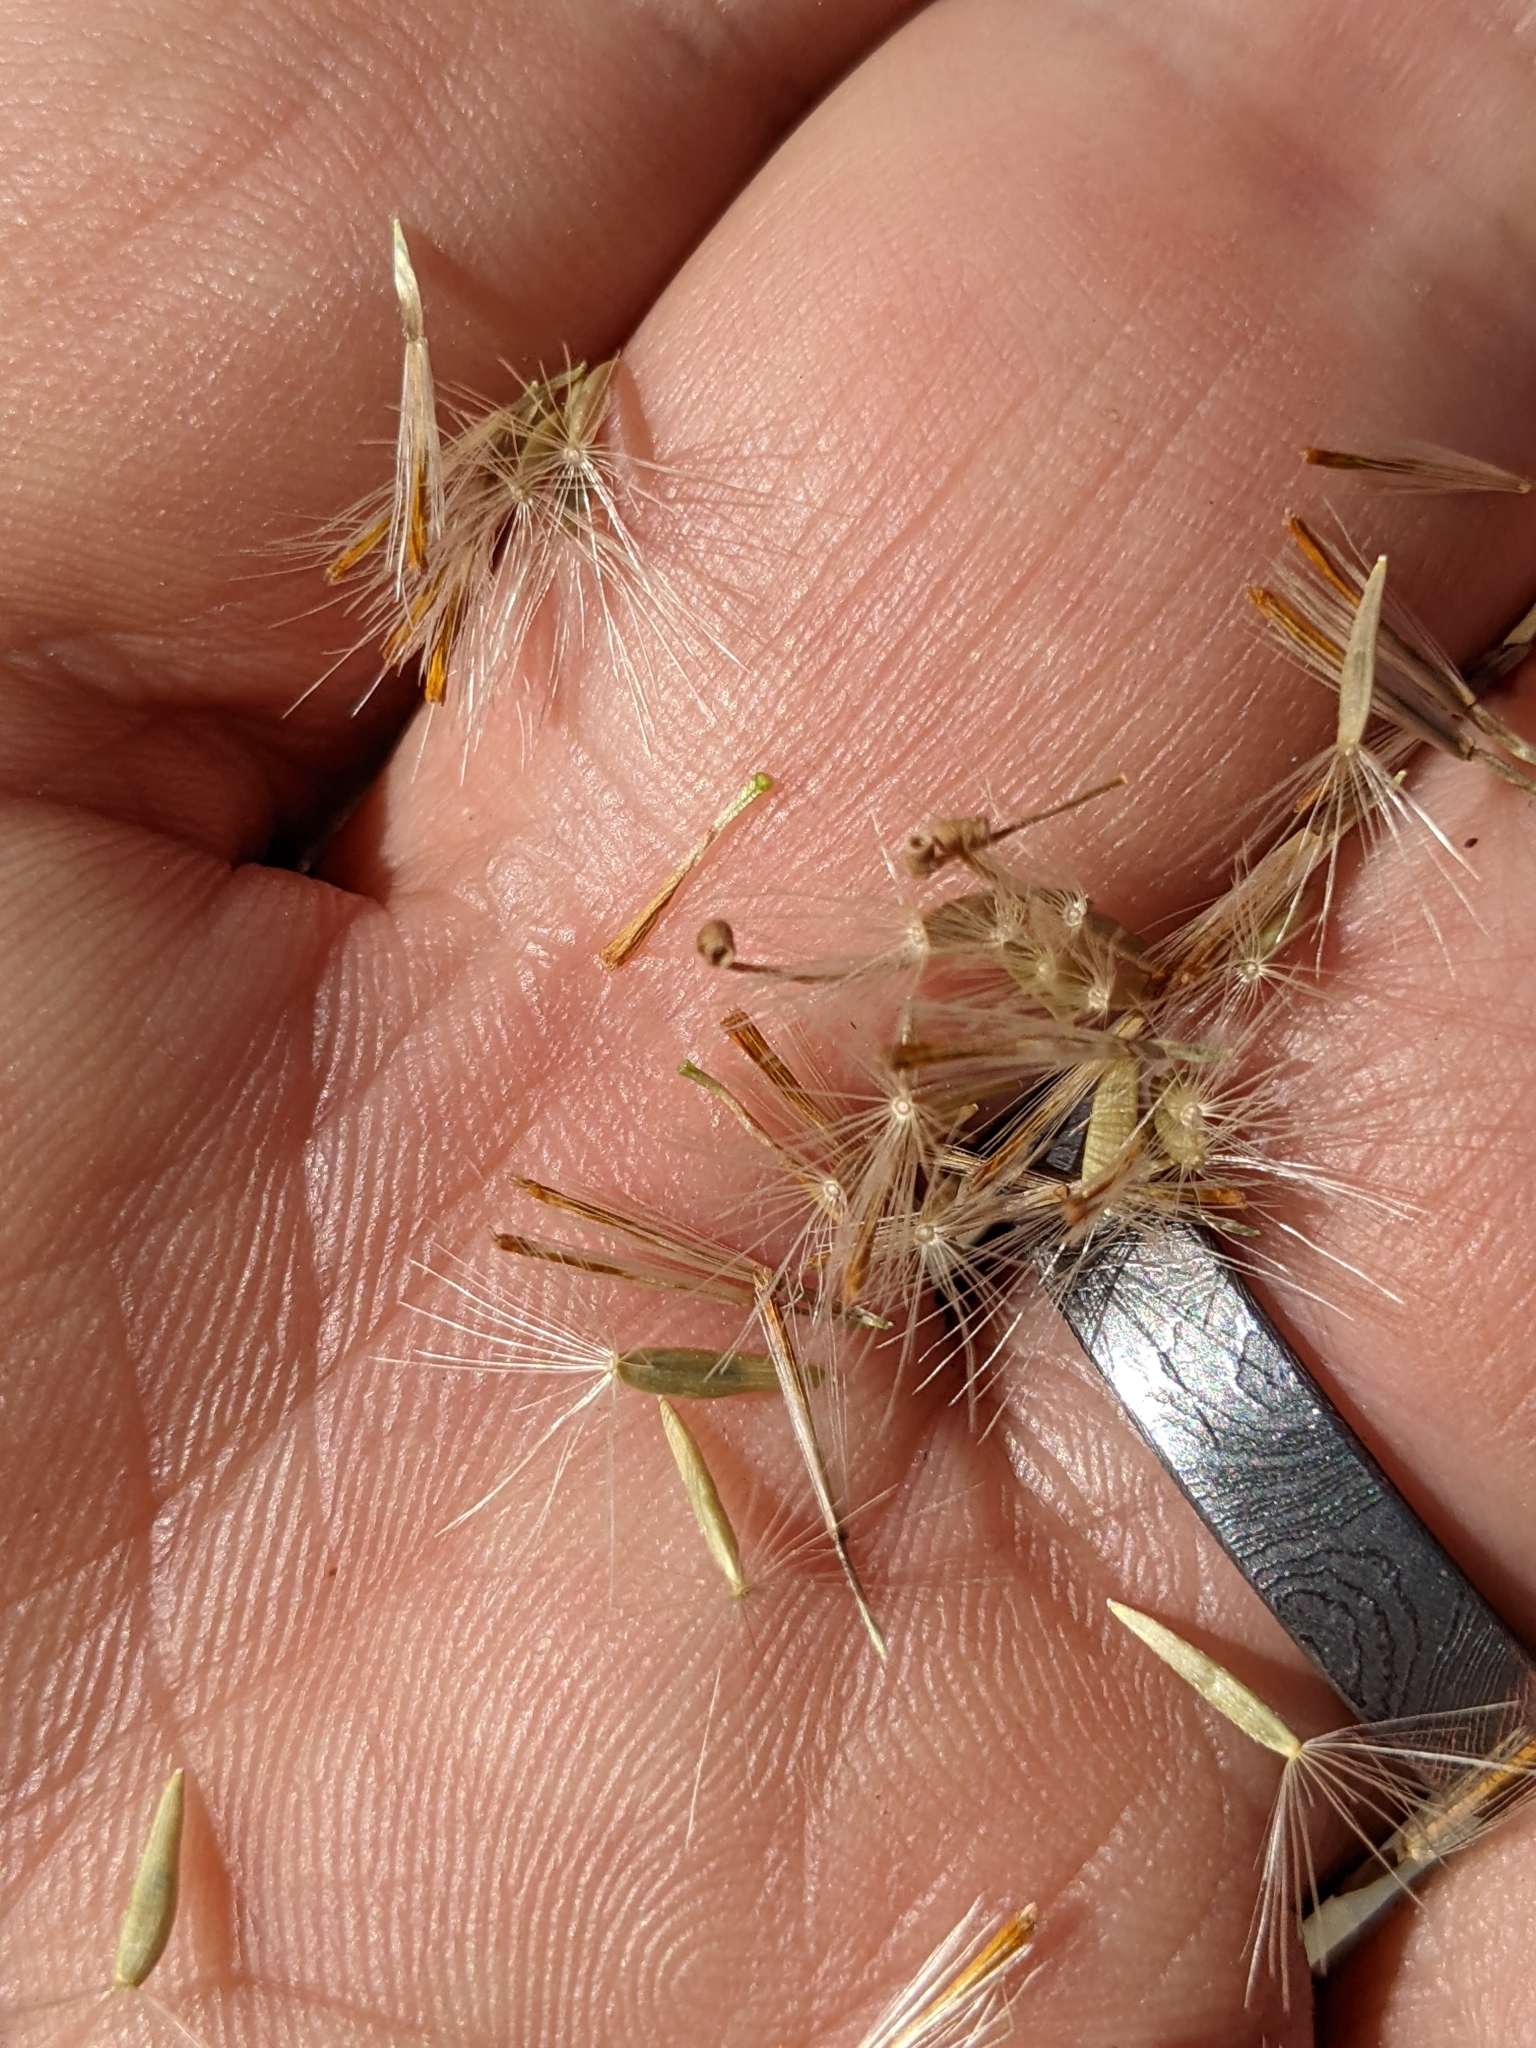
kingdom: Plantae
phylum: Tracheophyta
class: Magnoliopsida
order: Asterales
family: Asteraceae
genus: Dieteria
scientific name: Dieteria canescens
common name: Hoary-aster
